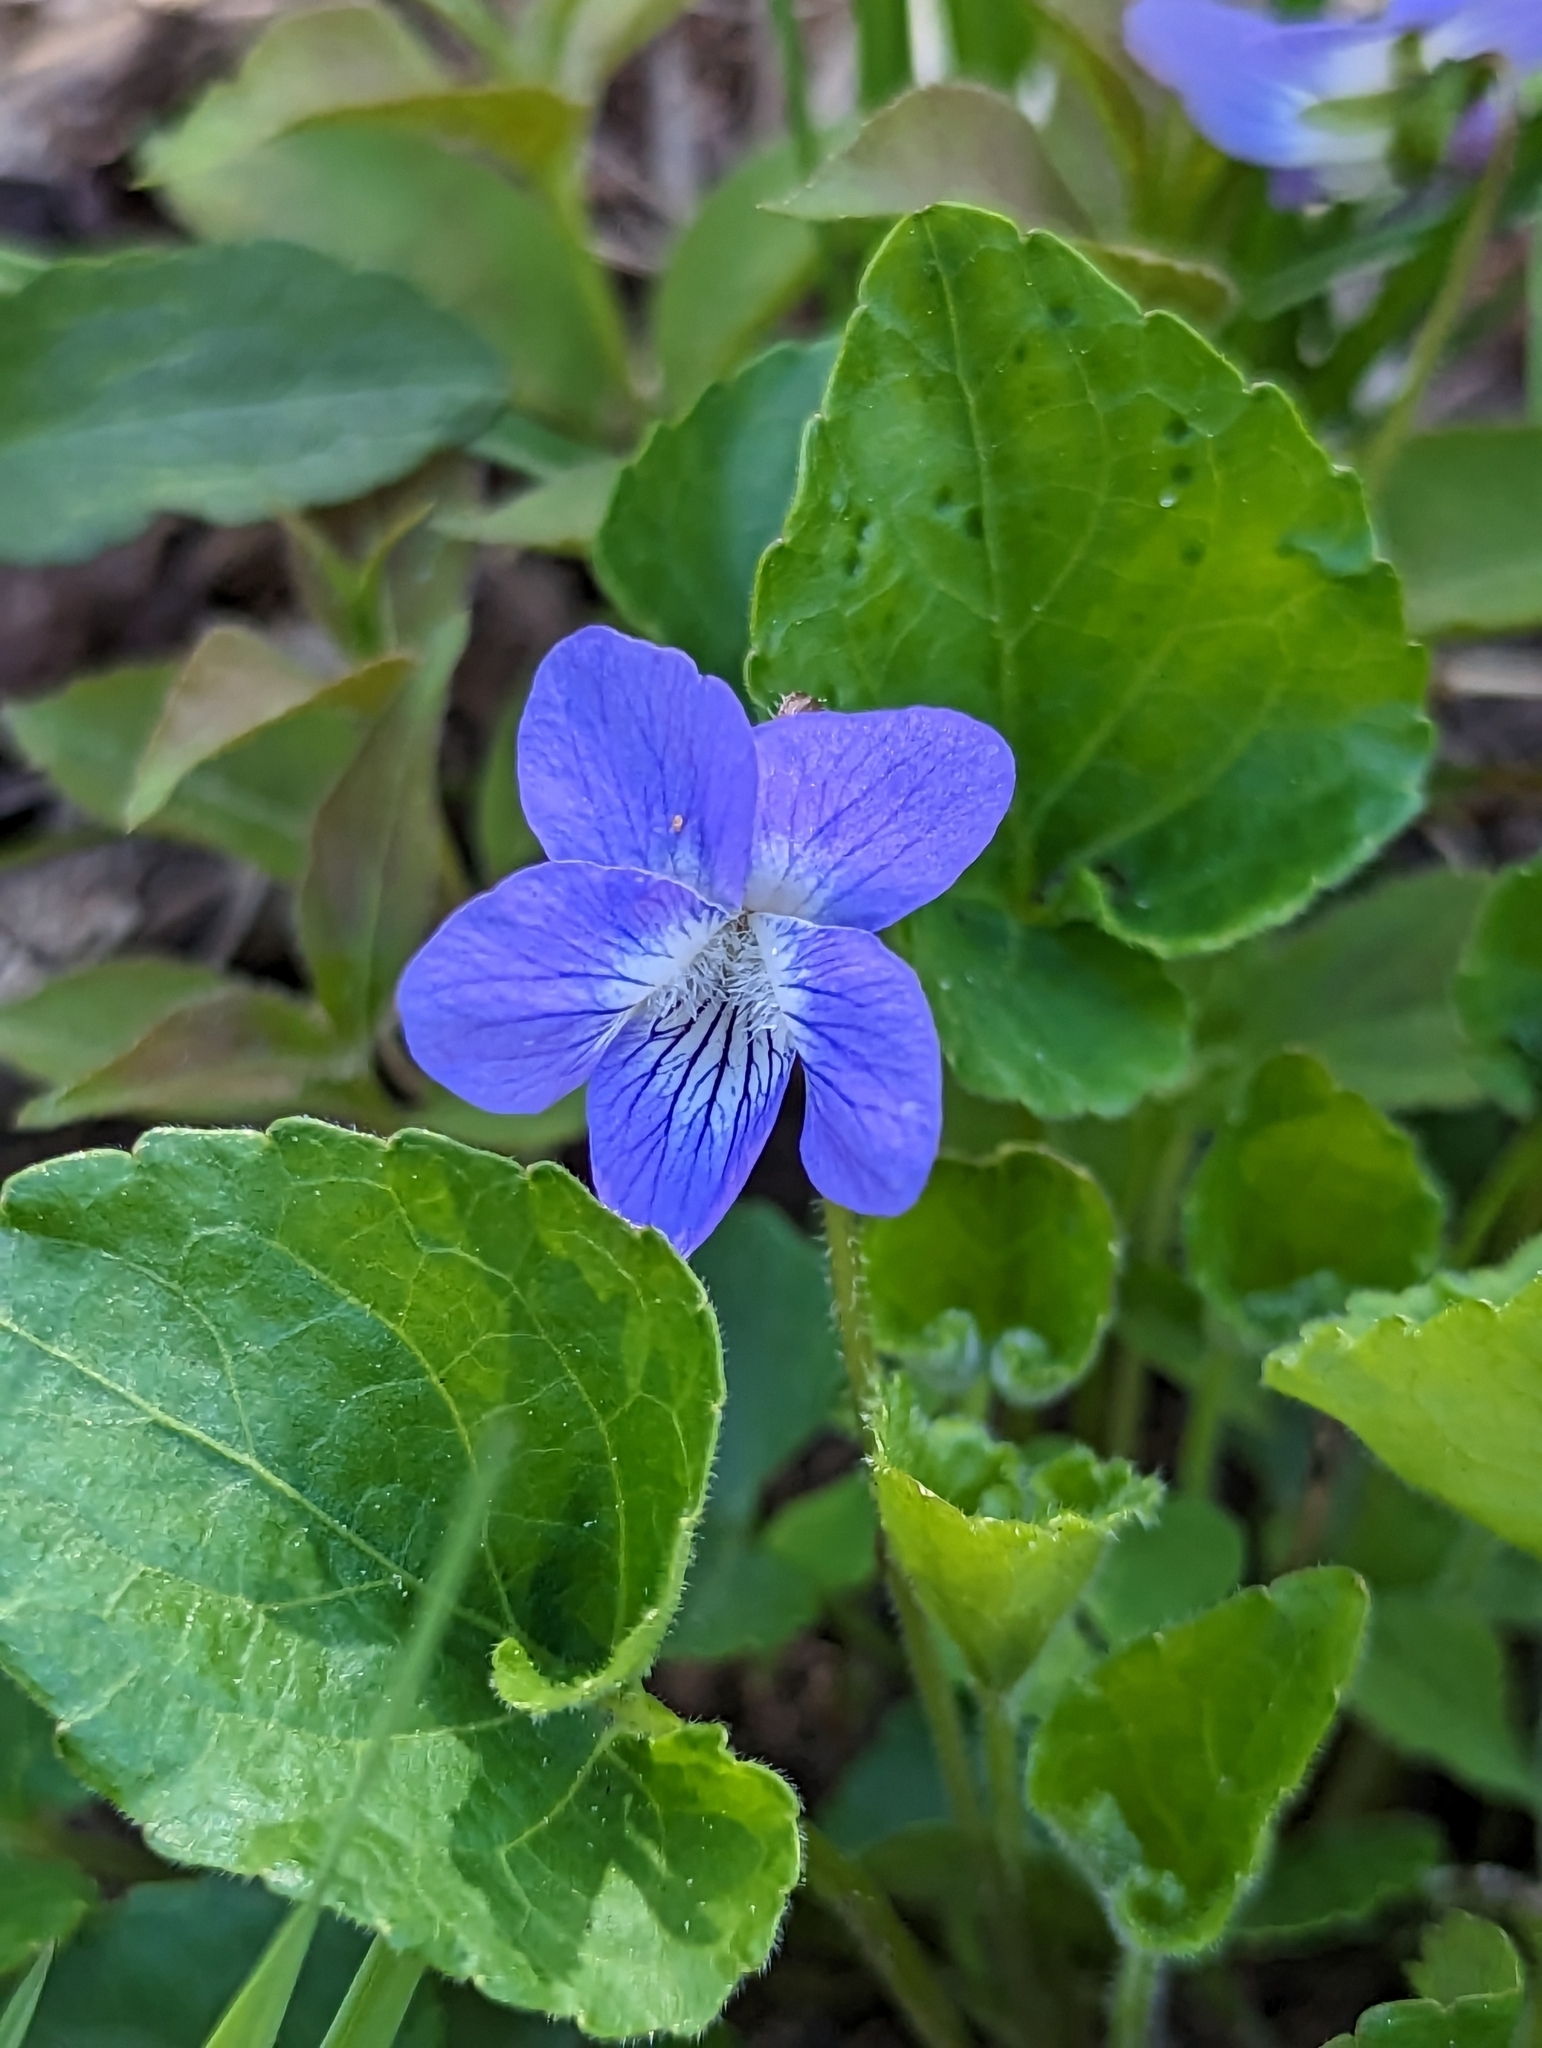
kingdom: Plantae
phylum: Tracheophyta
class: Magnoliopsida
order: Malpighiales
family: Violaceae
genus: Viola
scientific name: Viola septentrionalis
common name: Northern woodland violet
